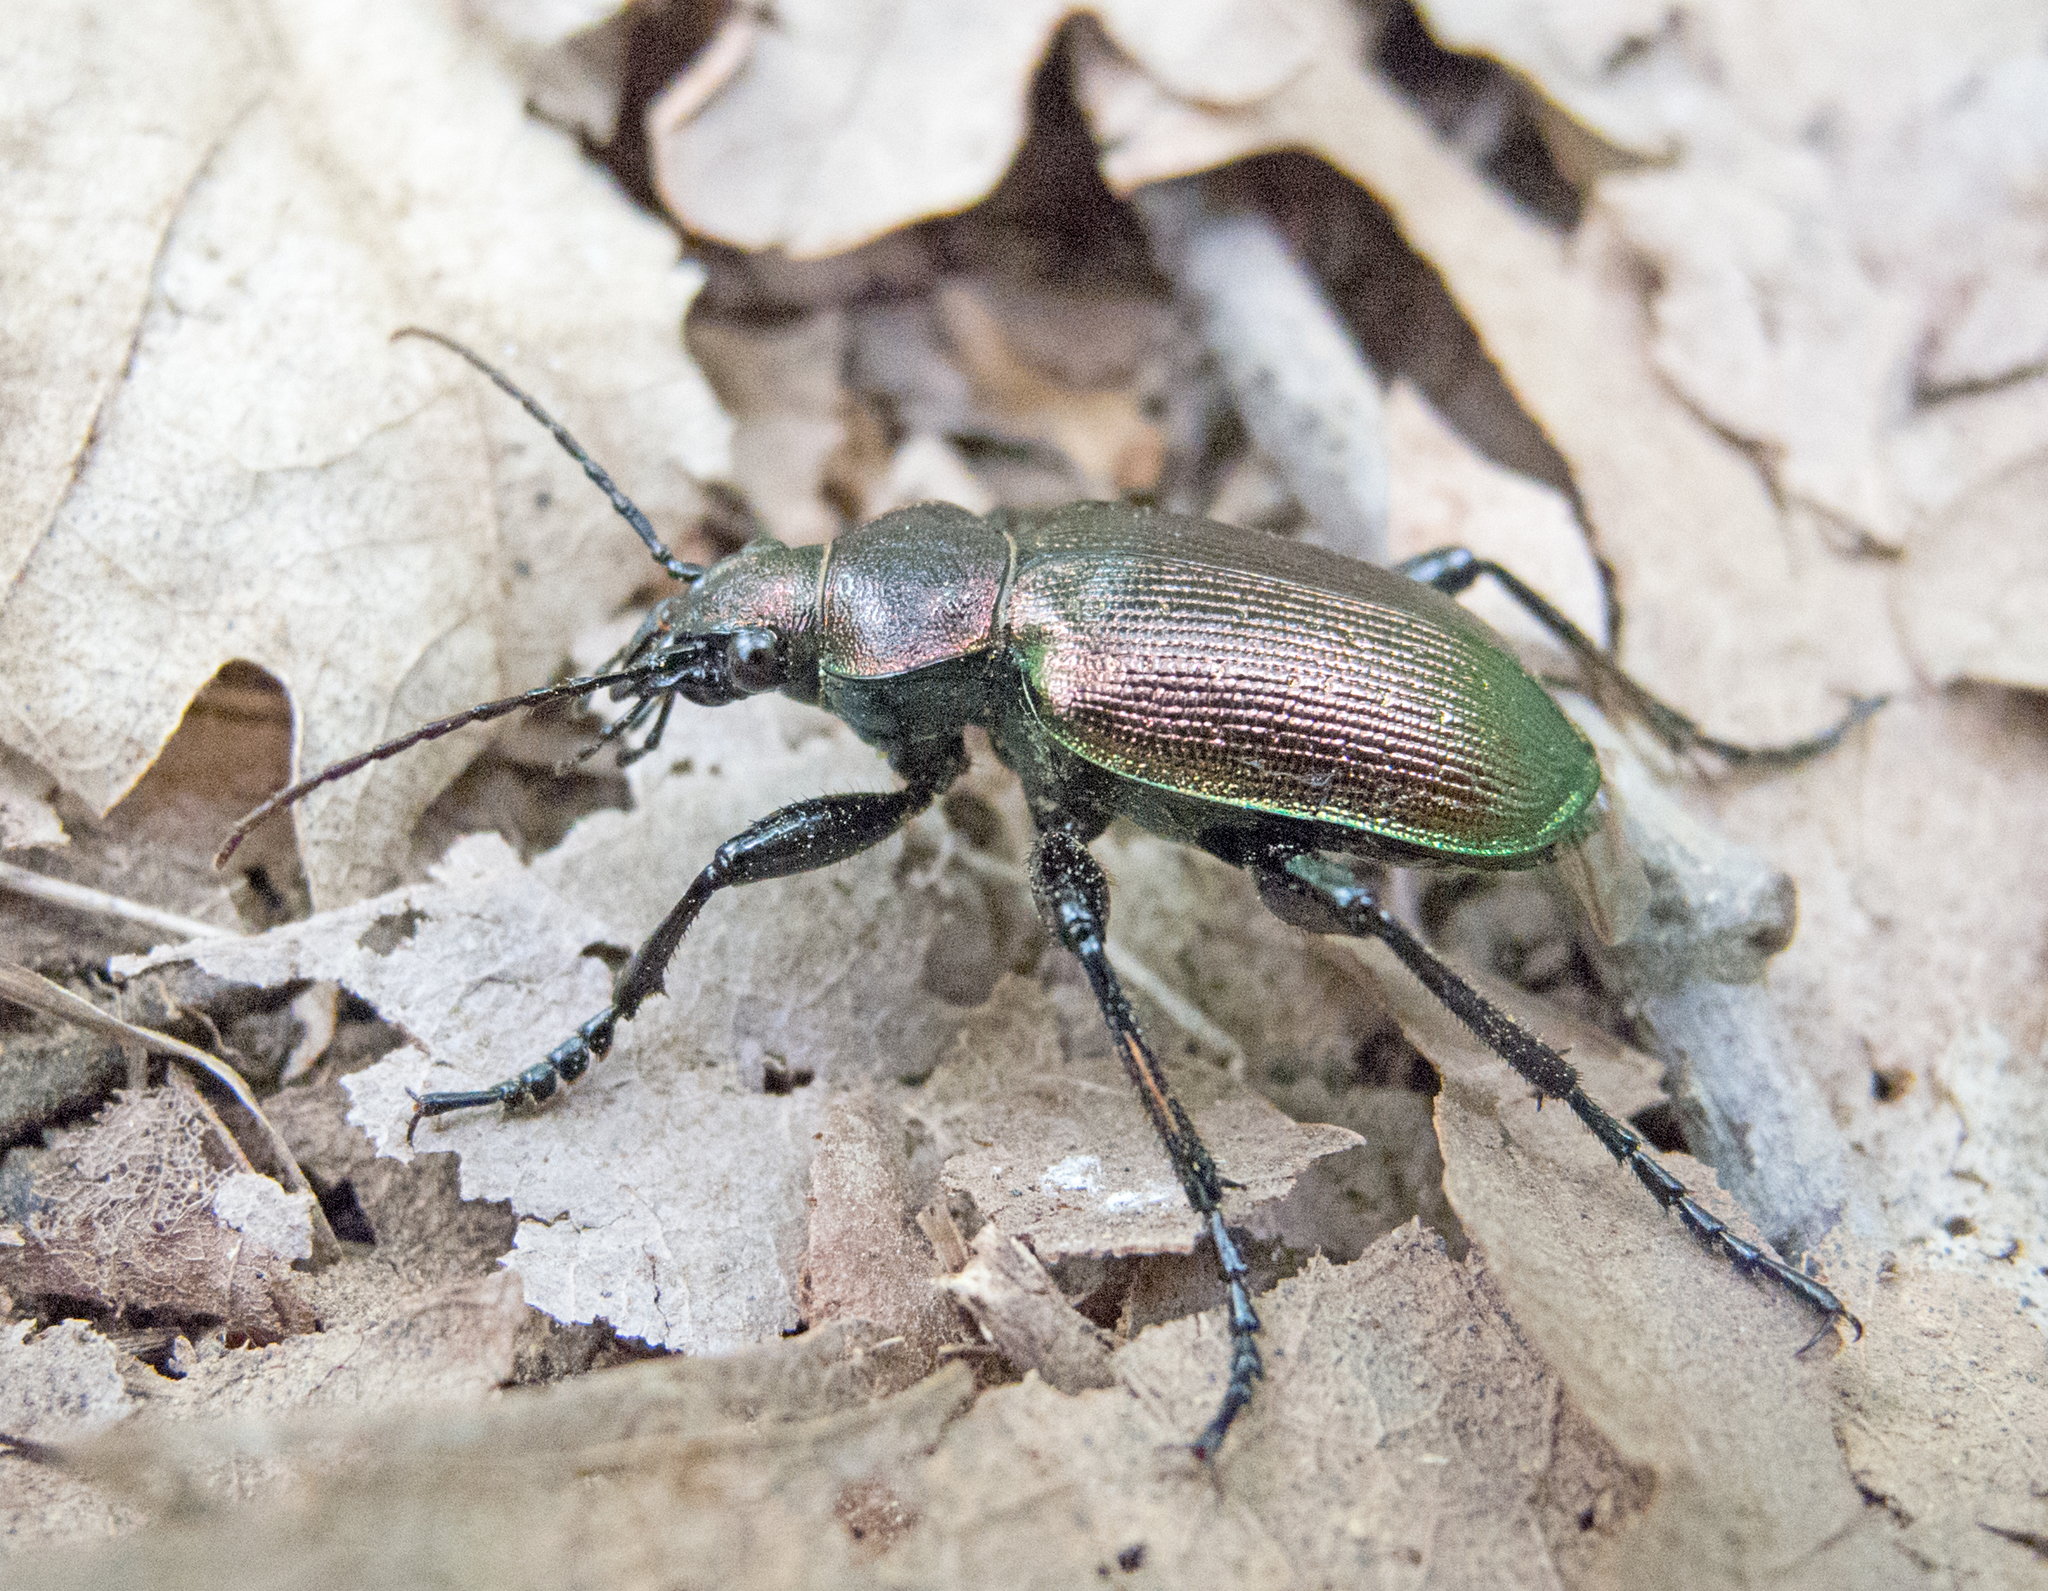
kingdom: Animalia
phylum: Arthropoda
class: Insecta
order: Coleoptera
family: Carabidae
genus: Calosoma
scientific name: Calosoma inquisitor
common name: Caterpillar-hunter
